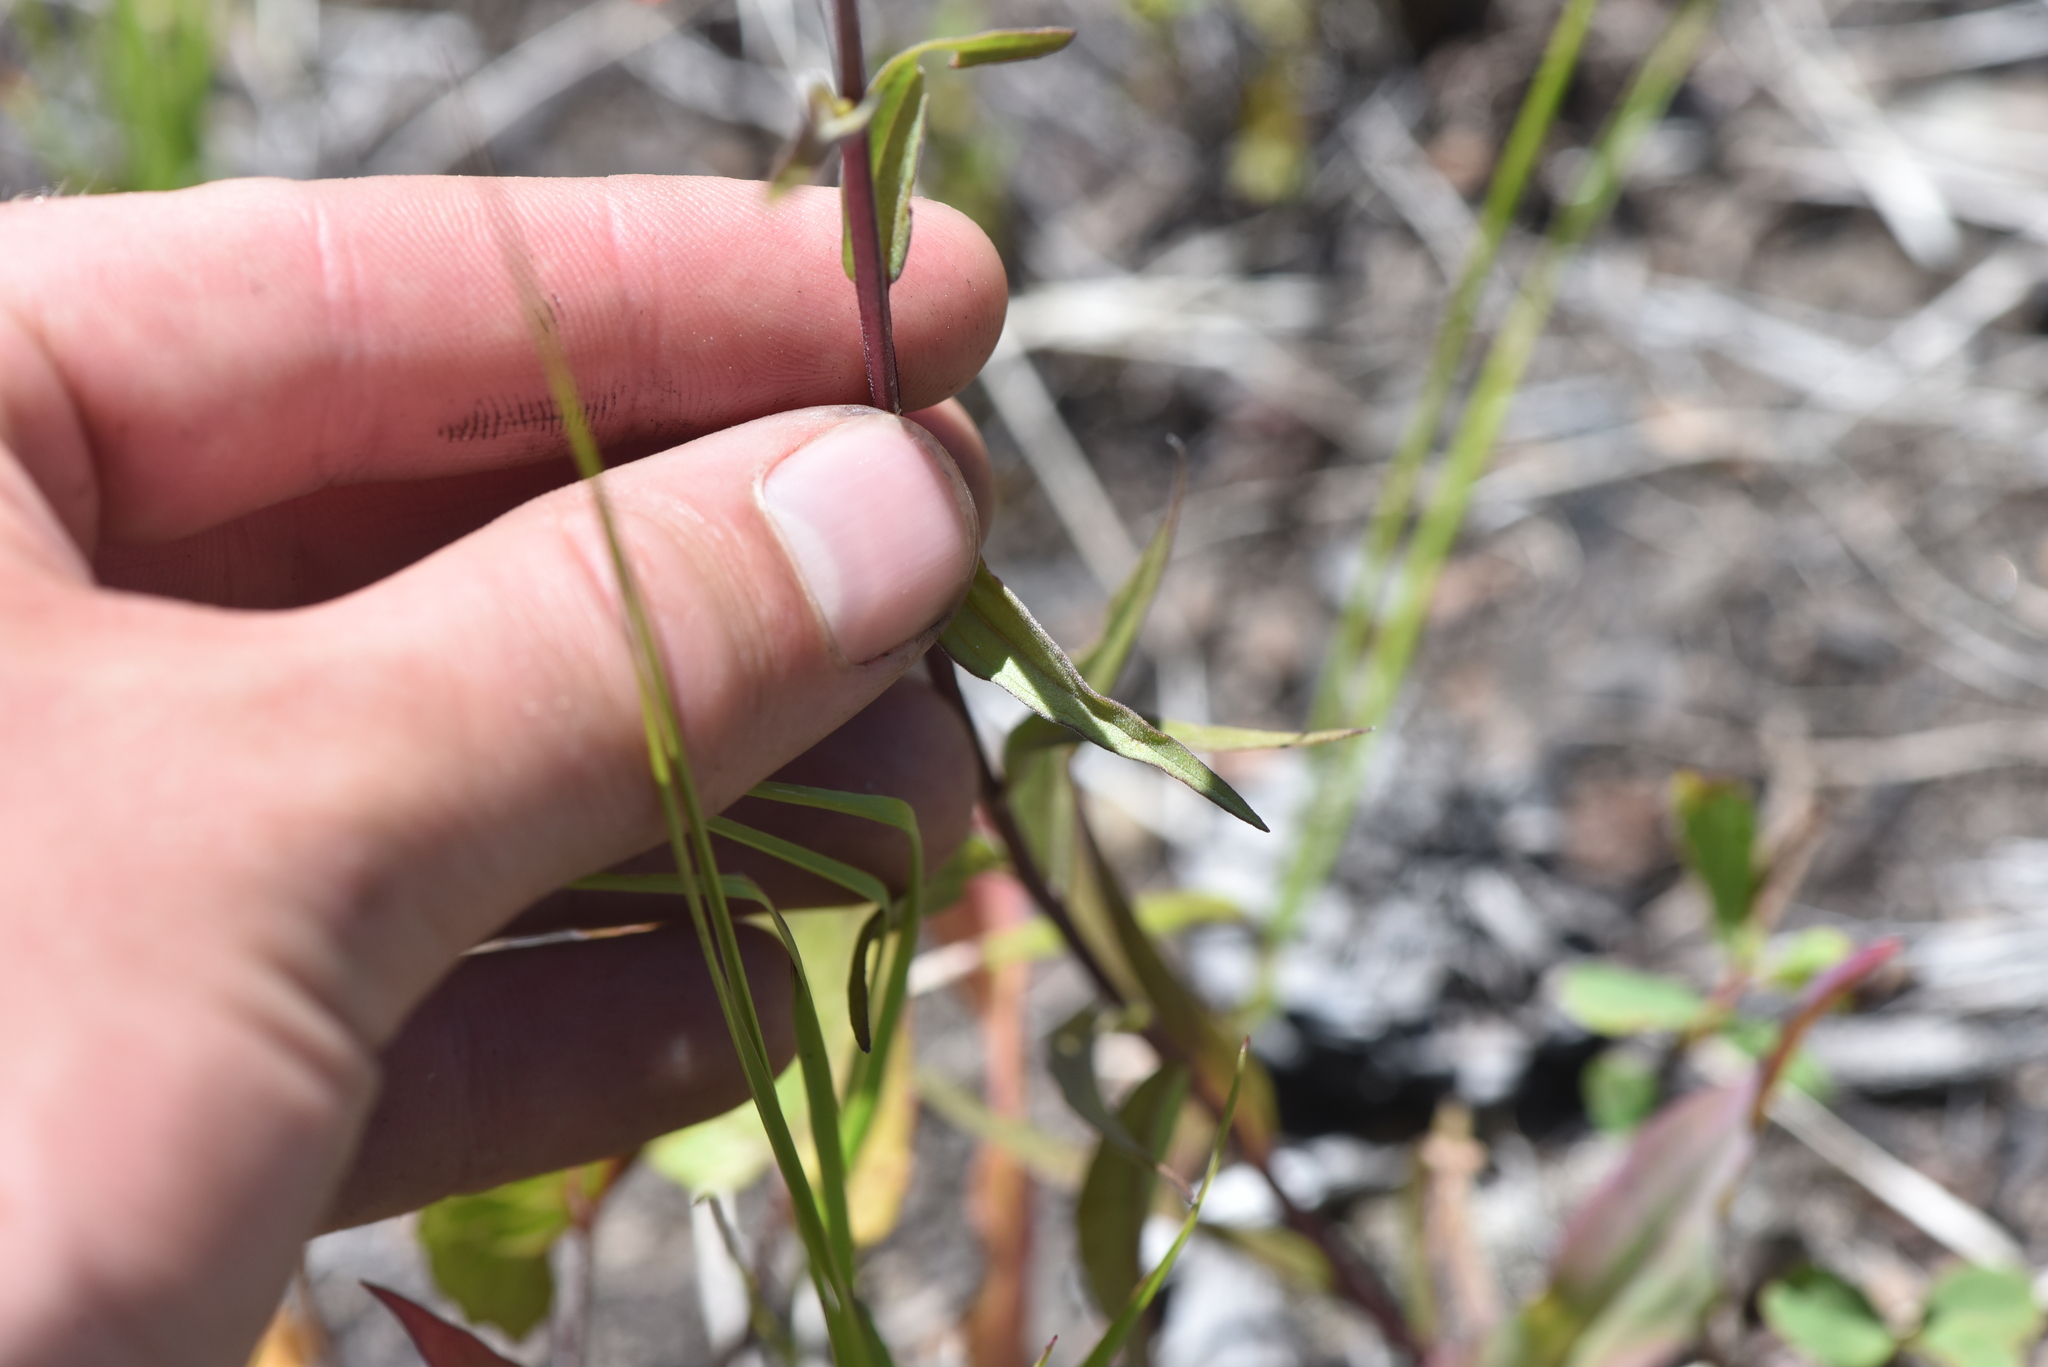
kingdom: Plantae
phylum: Tracheophyta
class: Magnoliopsida
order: Lamiales
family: Orobanchaceae
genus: Castilleja
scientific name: Castilleja miniata
